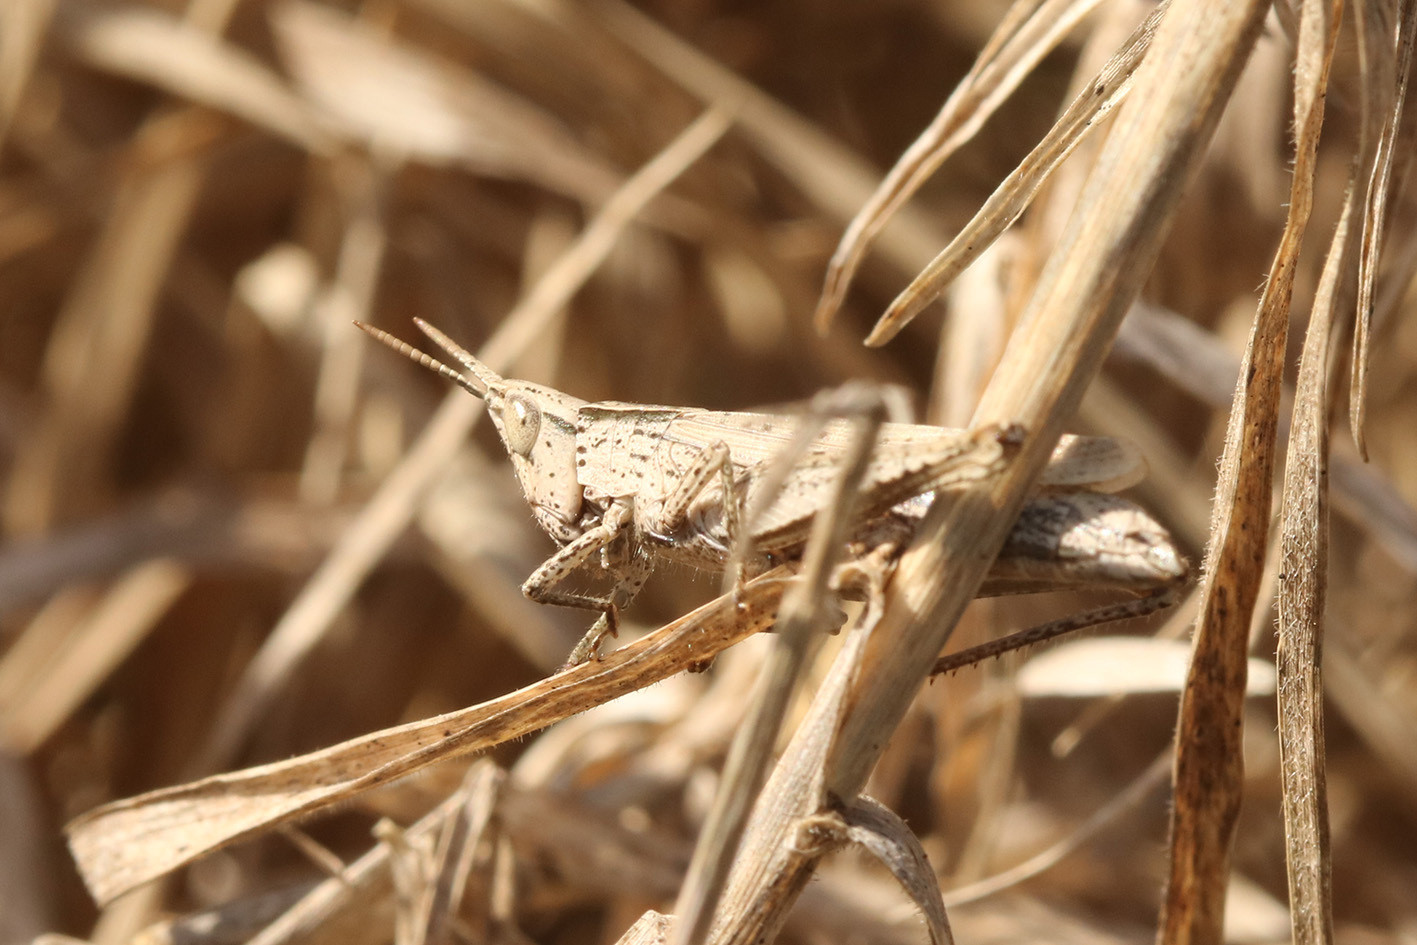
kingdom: Animalia
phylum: Arthropoda
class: Insecta
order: Orthoptera
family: Acrididae
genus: Laplatacris
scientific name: Laplatacris dispar
